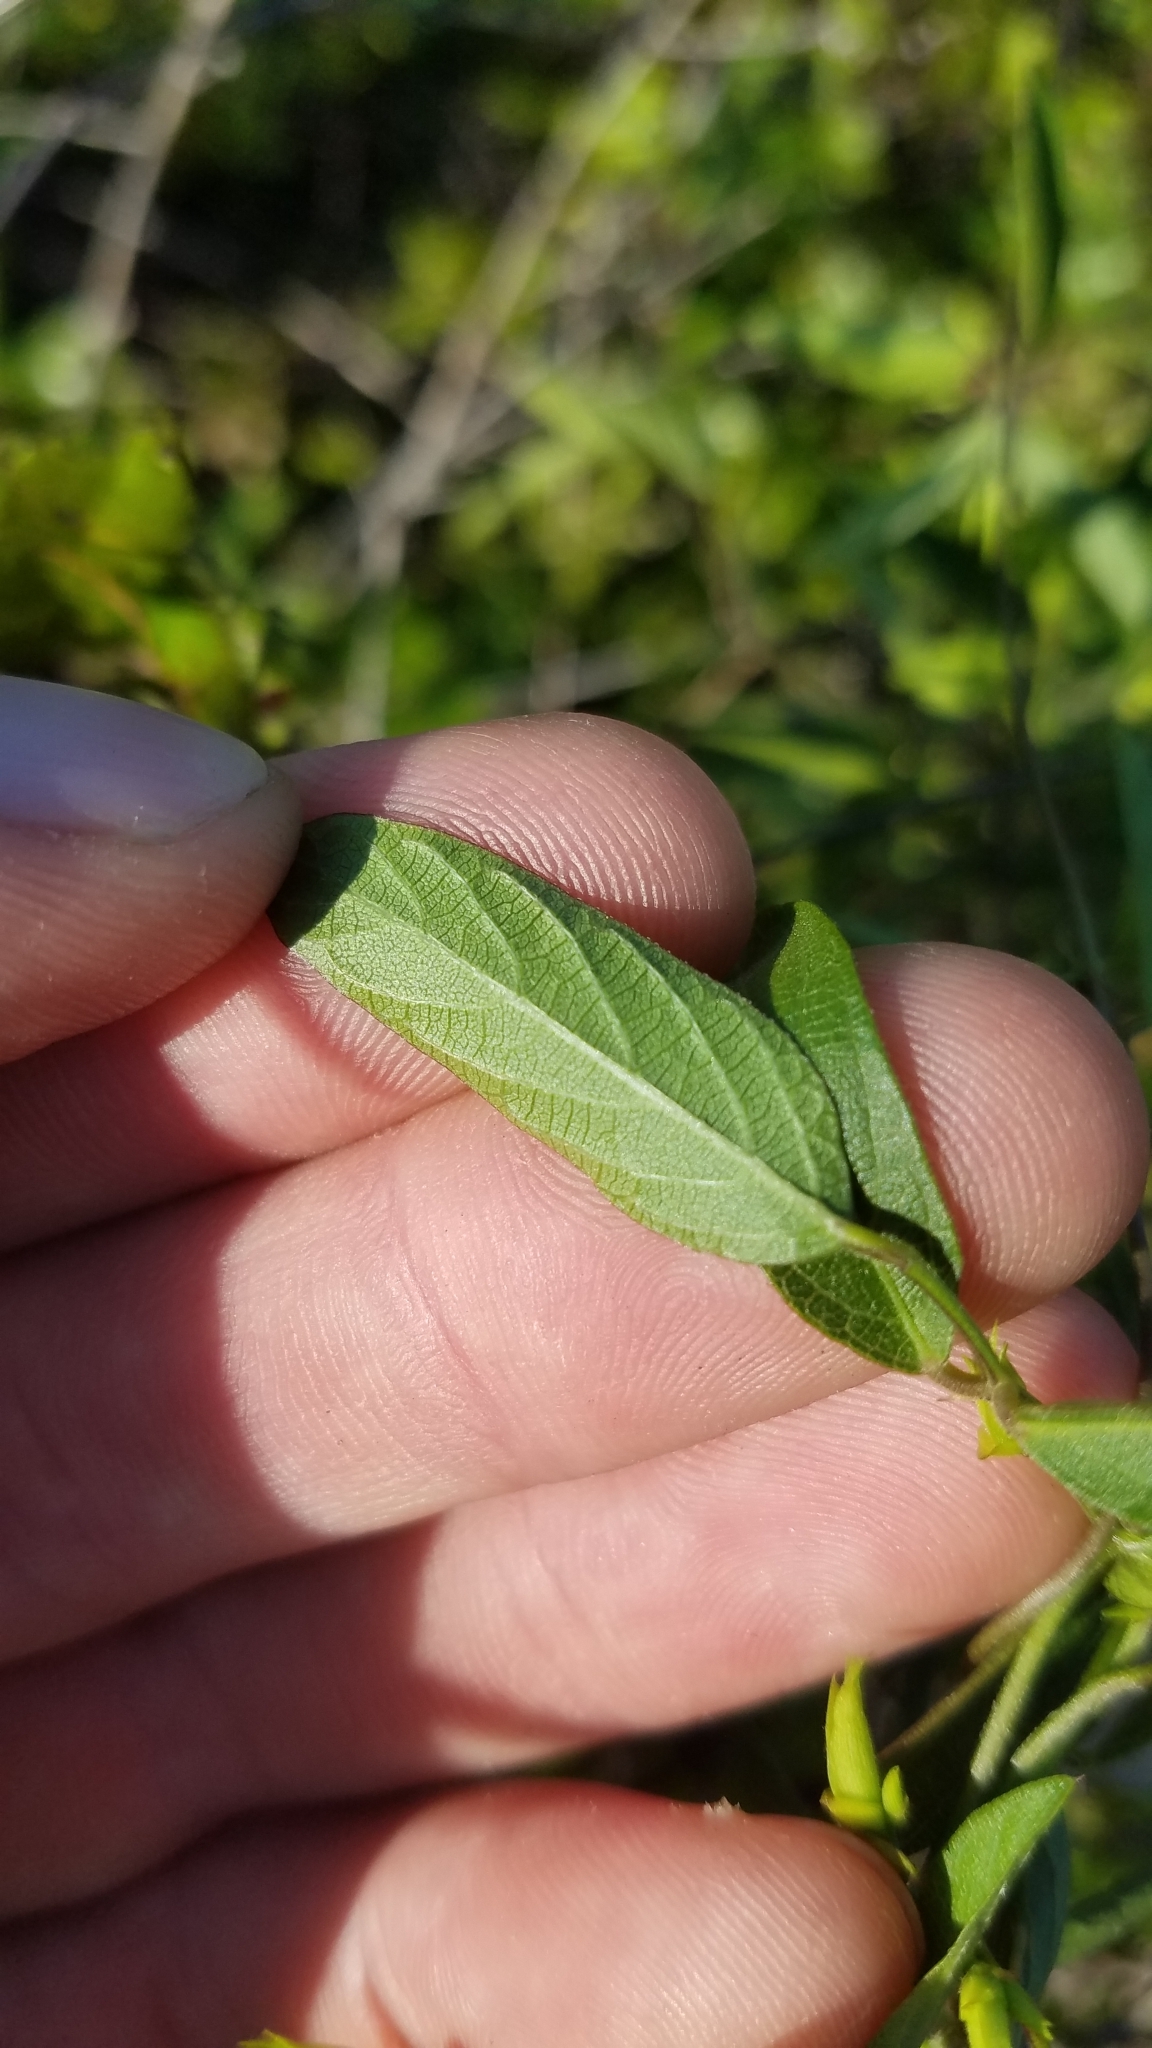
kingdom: Plantae
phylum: Tracheophyta
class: Magnoliopsida
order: Fabales
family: Fabaceae
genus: Centrosema
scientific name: Centrosema virginianum
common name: Butterfly-pea
